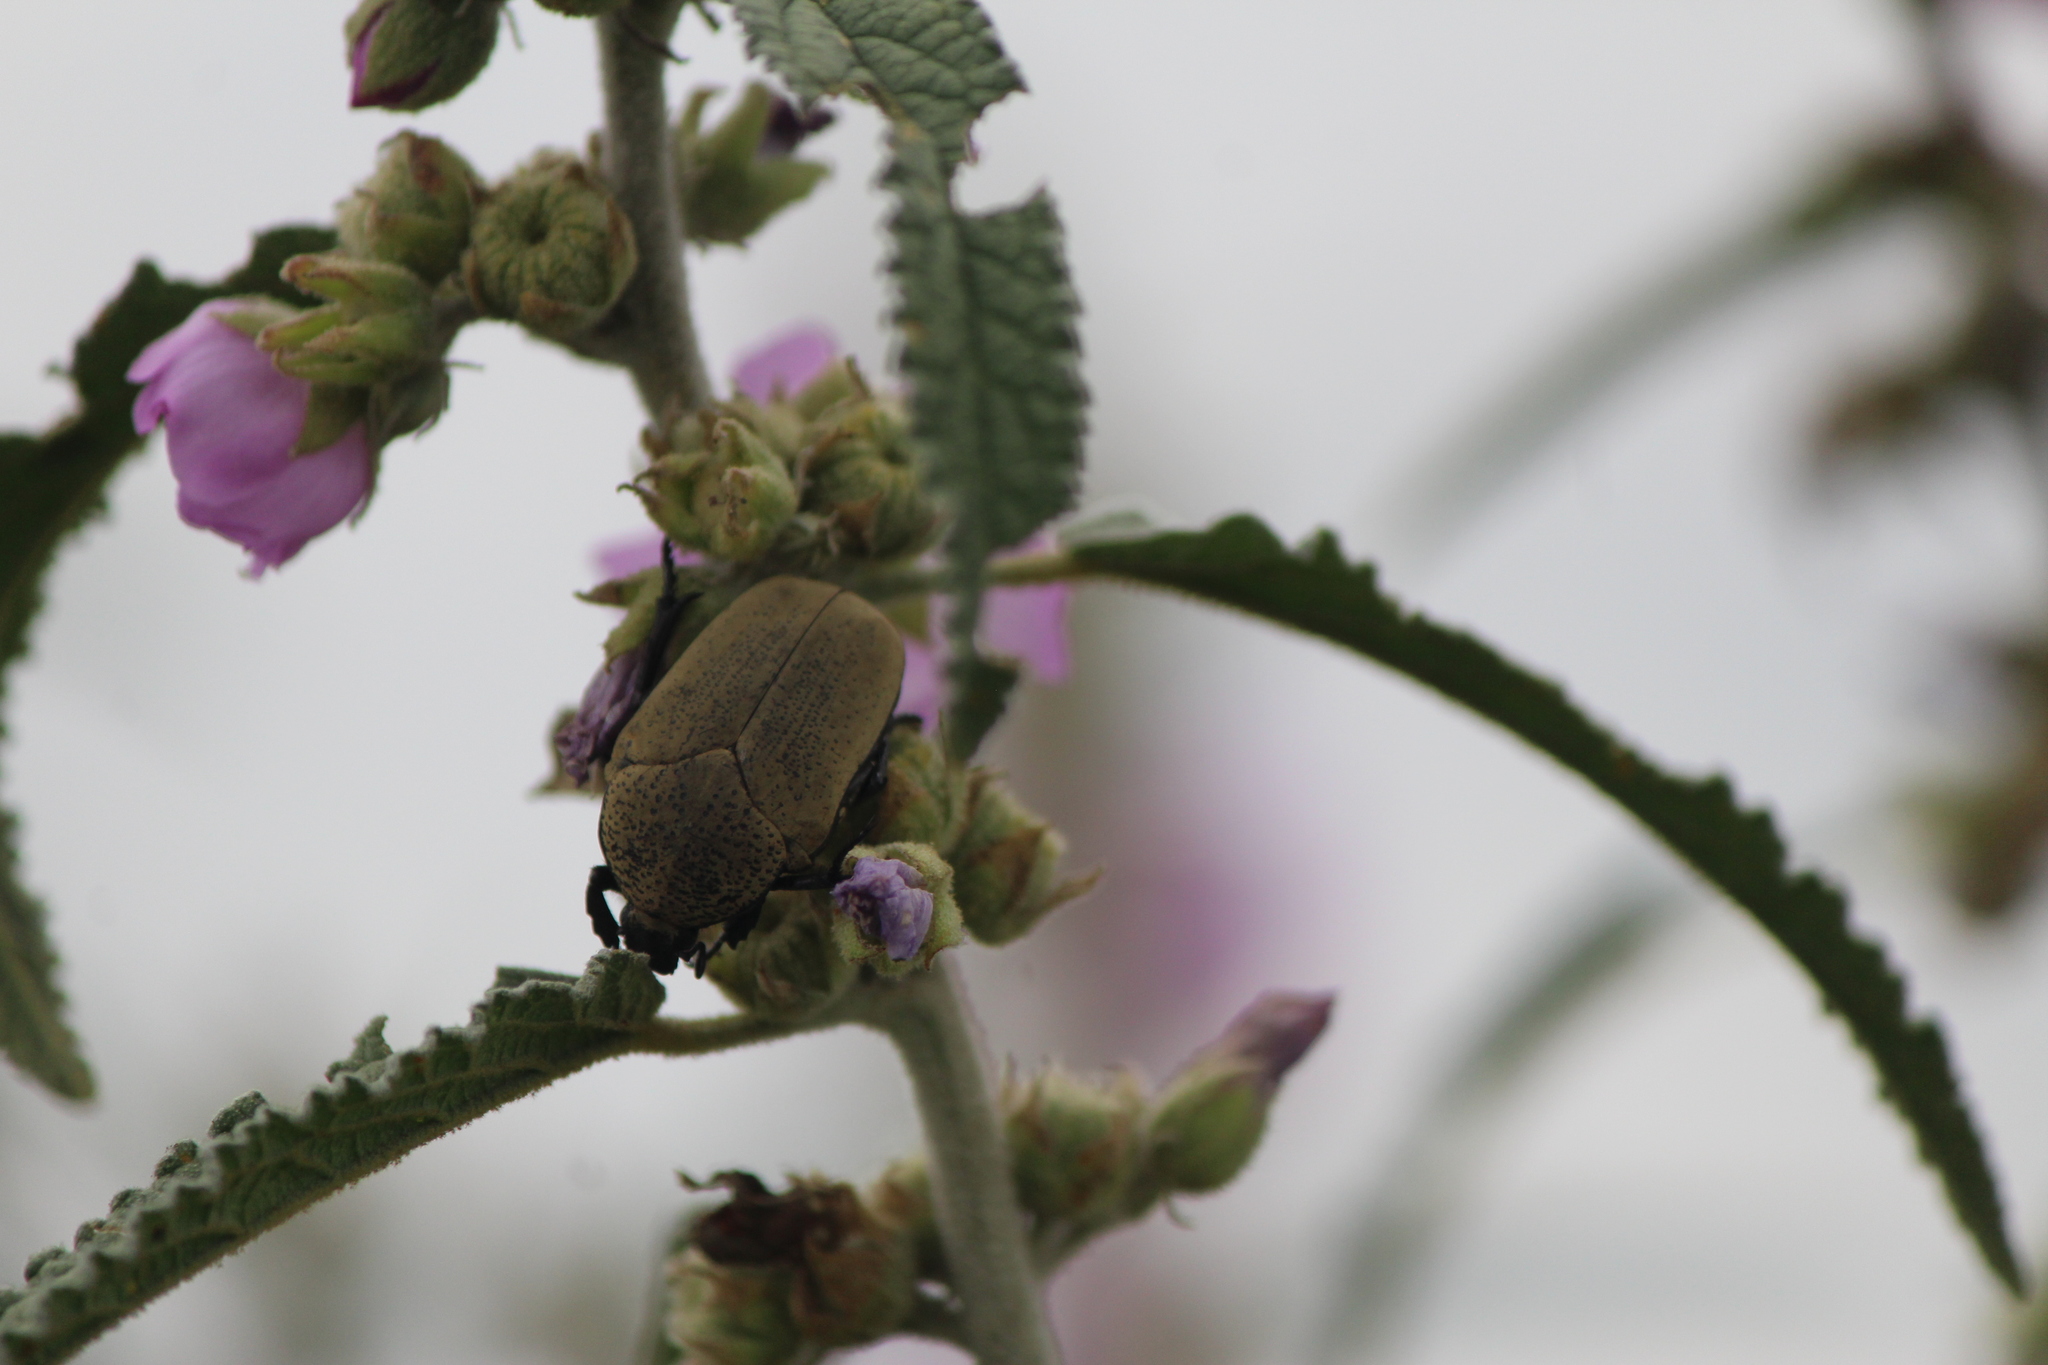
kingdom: Animalia
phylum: Arthropoda
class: Insecta
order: Coleoptera
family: Scarabaeidae
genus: Hologymnetis
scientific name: Hologymnetis cinerea
